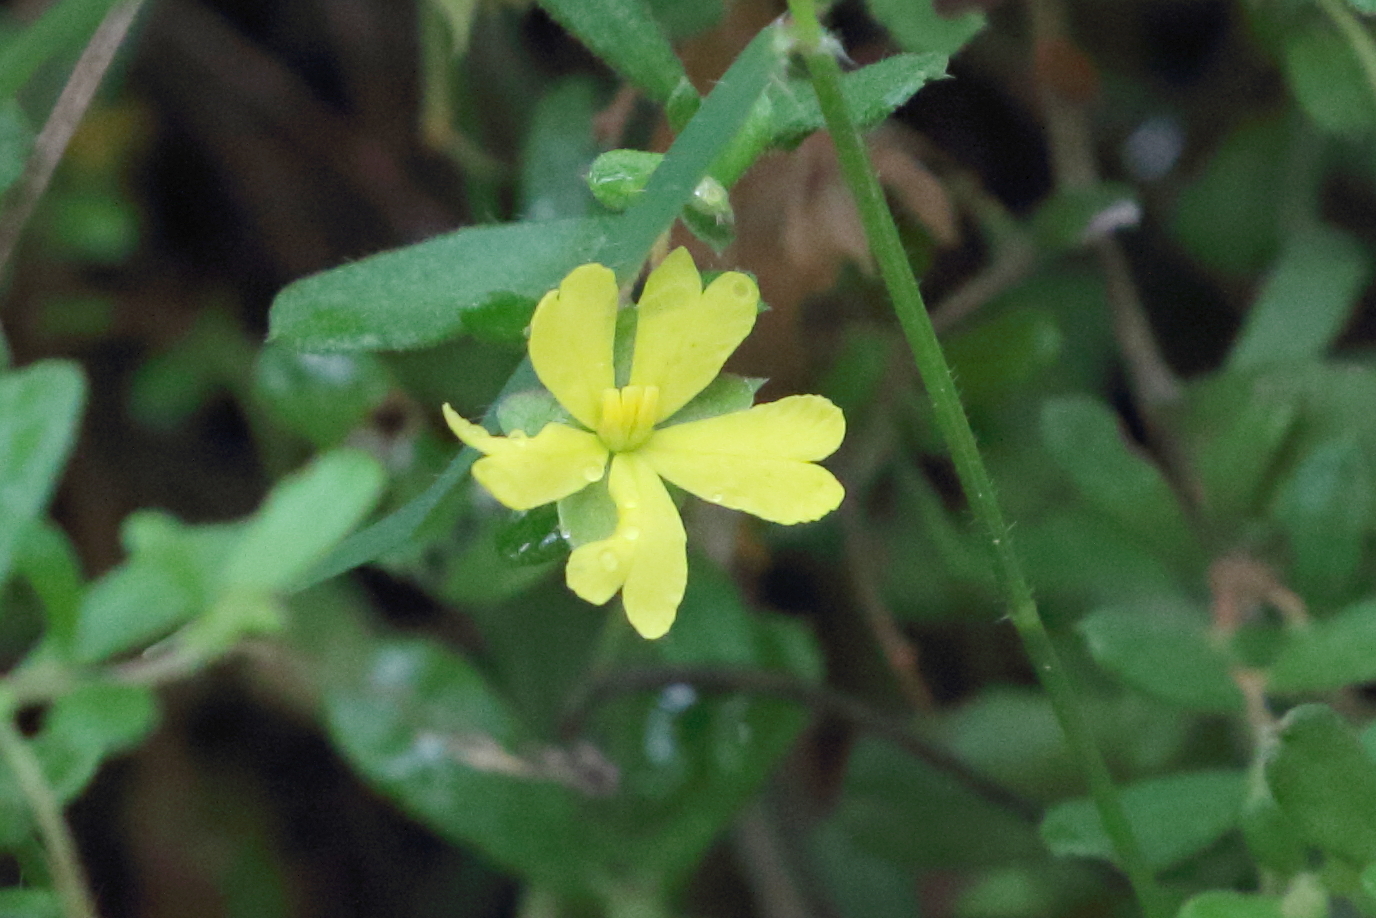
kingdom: Plantae
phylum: Tracheophyta
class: Magnoliopsida
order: Dilleniales
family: Dilleniaceae
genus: Hibbertia
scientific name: Hibbertia aspera
